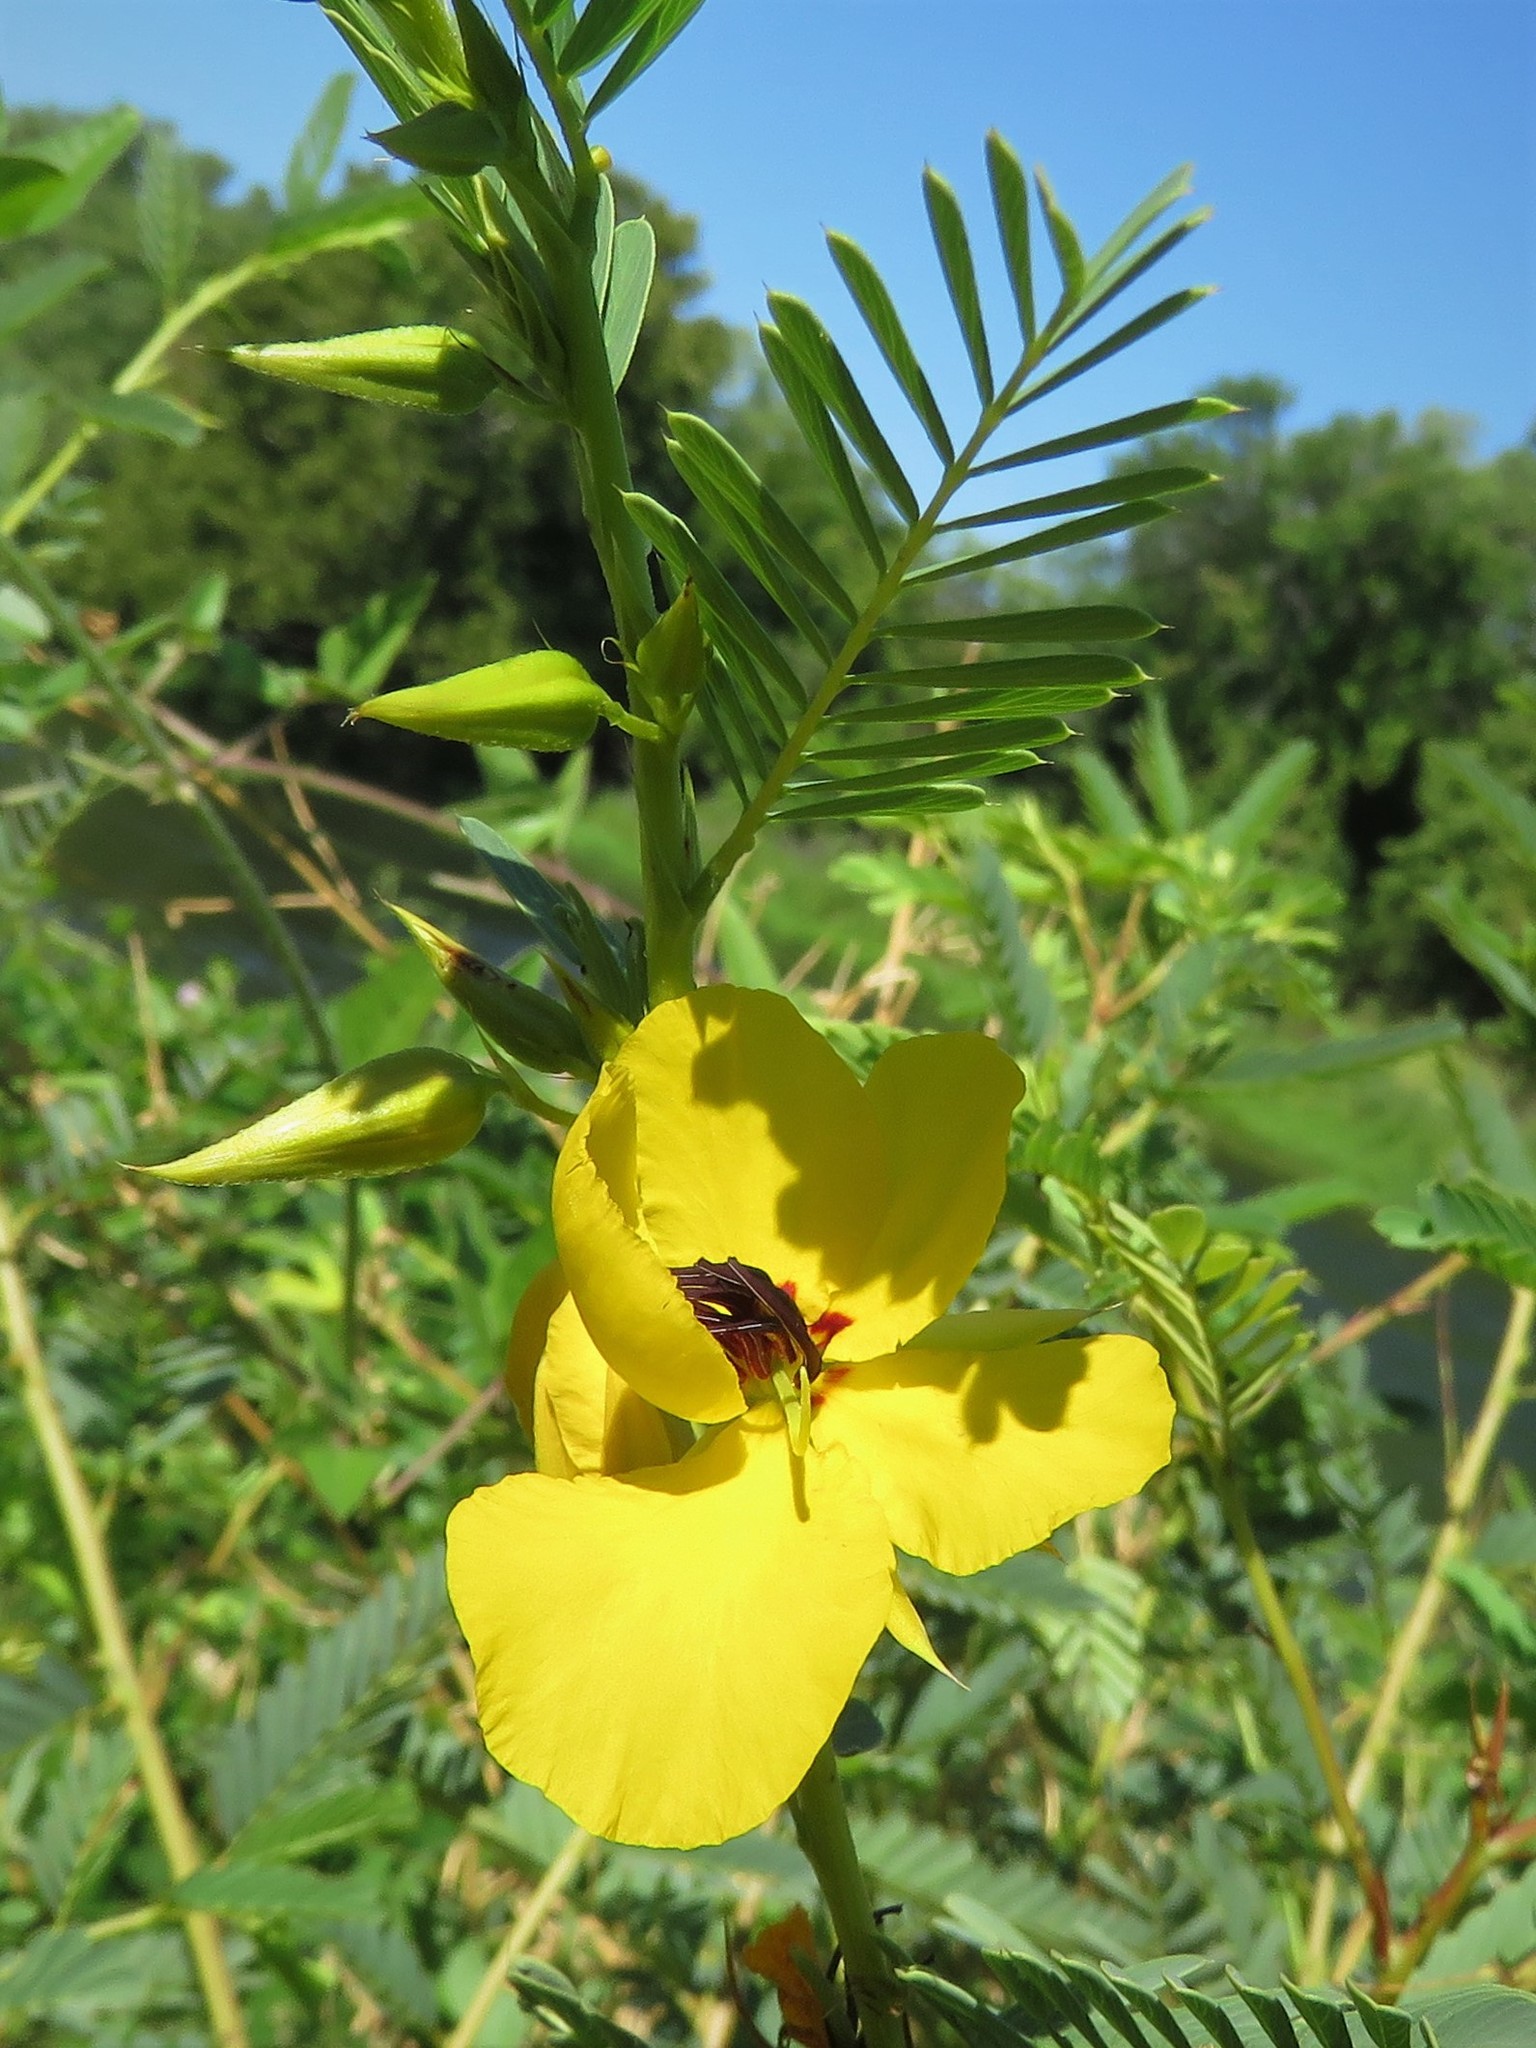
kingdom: Plantae
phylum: Tracheophyta
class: Magnoliopsida
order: Fabales
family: Fabaceae
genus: Chamaecrista
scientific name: Chamaecrista fasciculata
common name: Golden cassia
